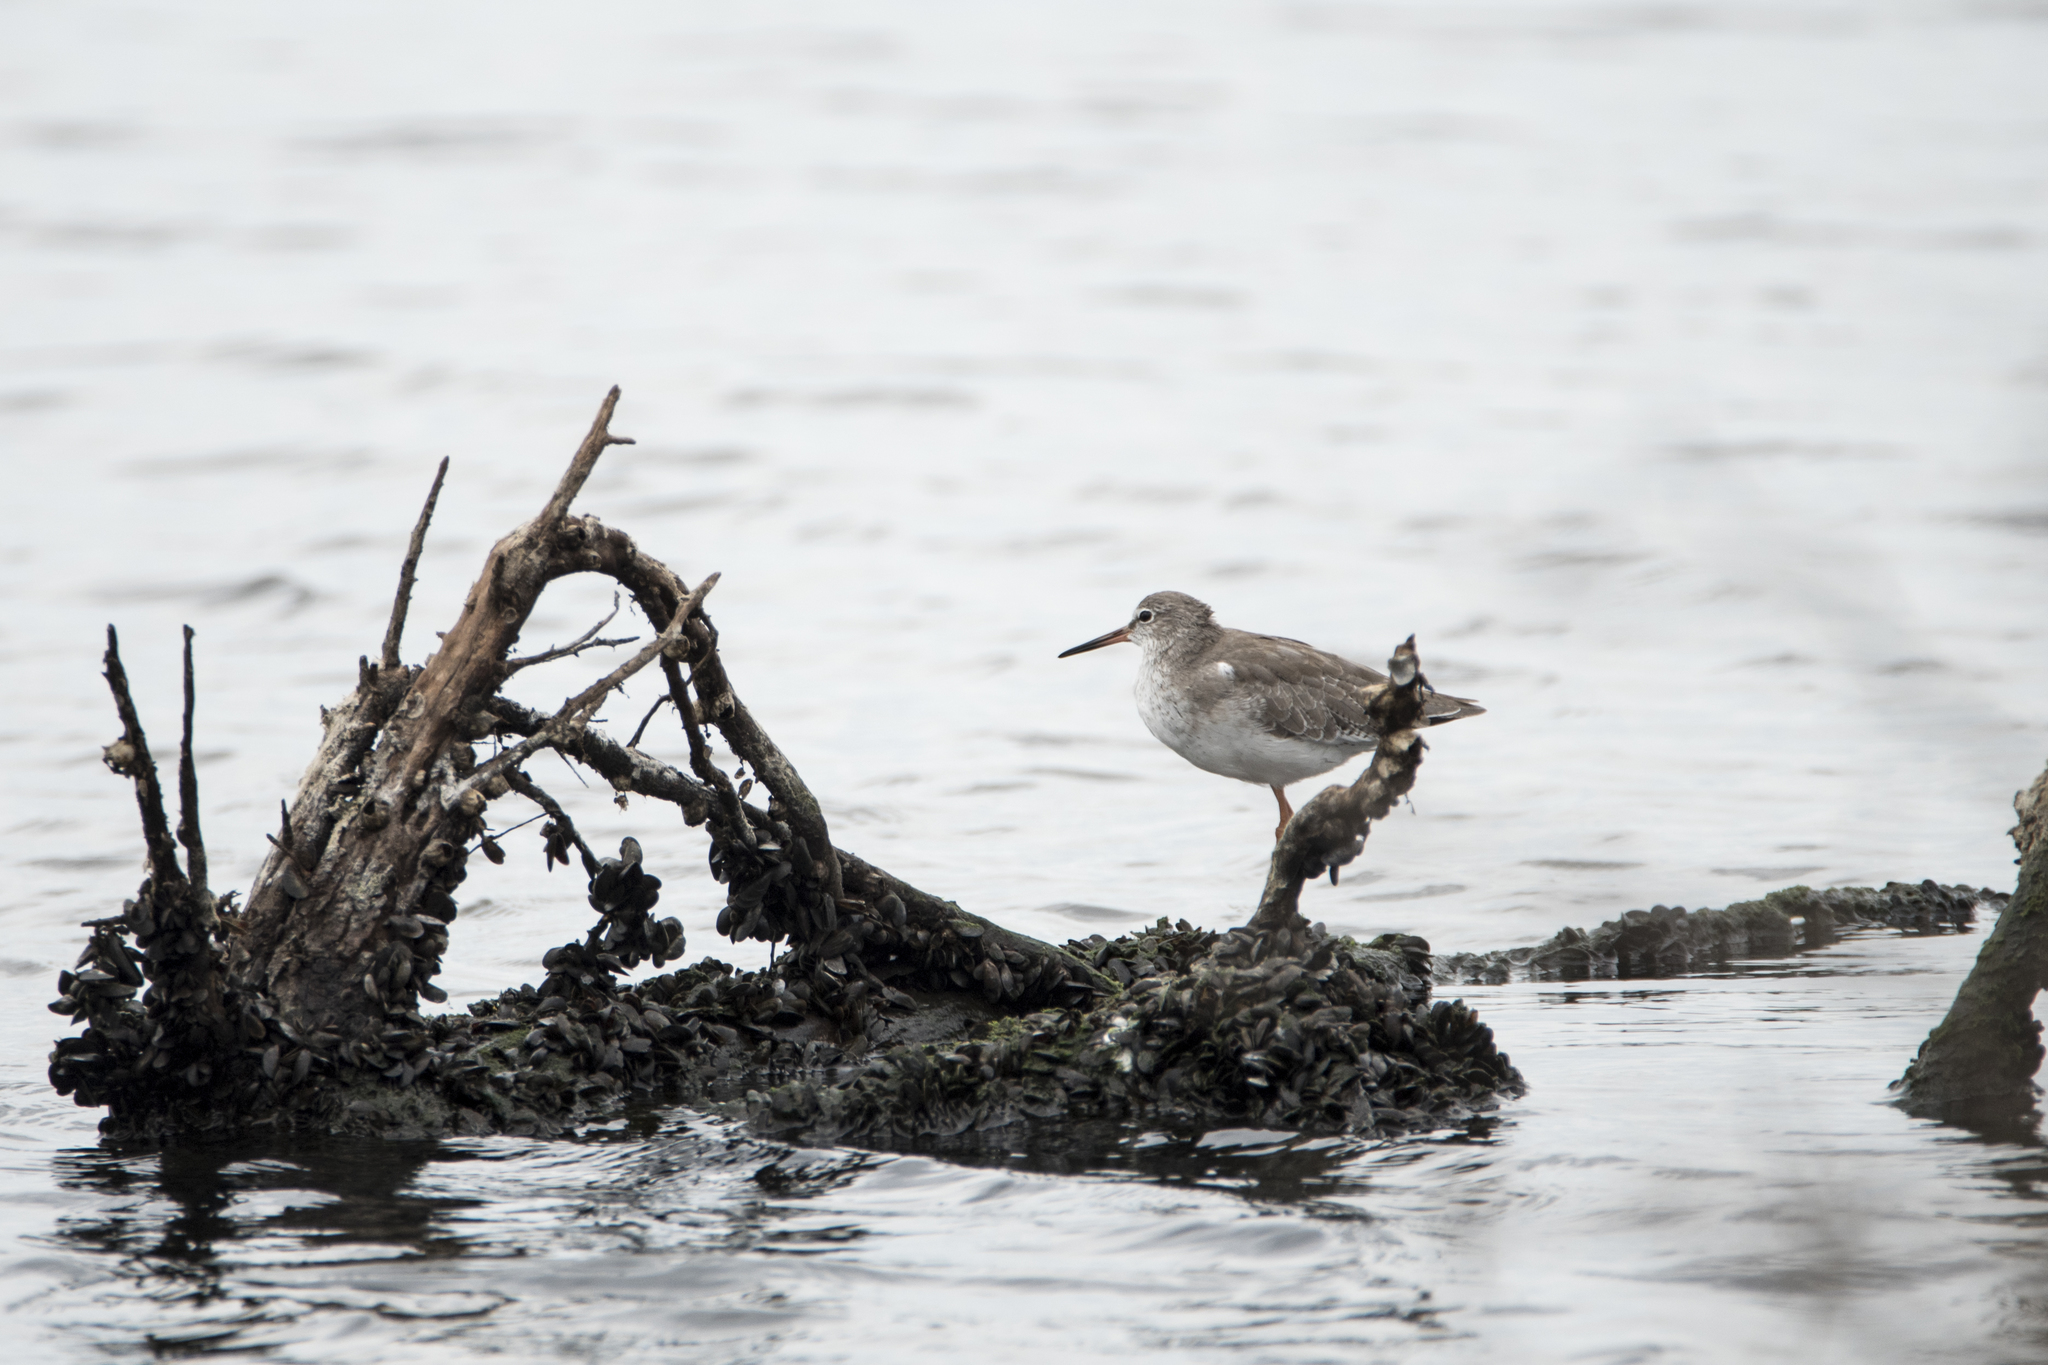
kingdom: Animalia
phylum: Chordata
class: Aves
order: Charadriiformes
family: Scolopacidae
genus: Tringa
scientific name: Tringa totanus
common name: Common redshank
